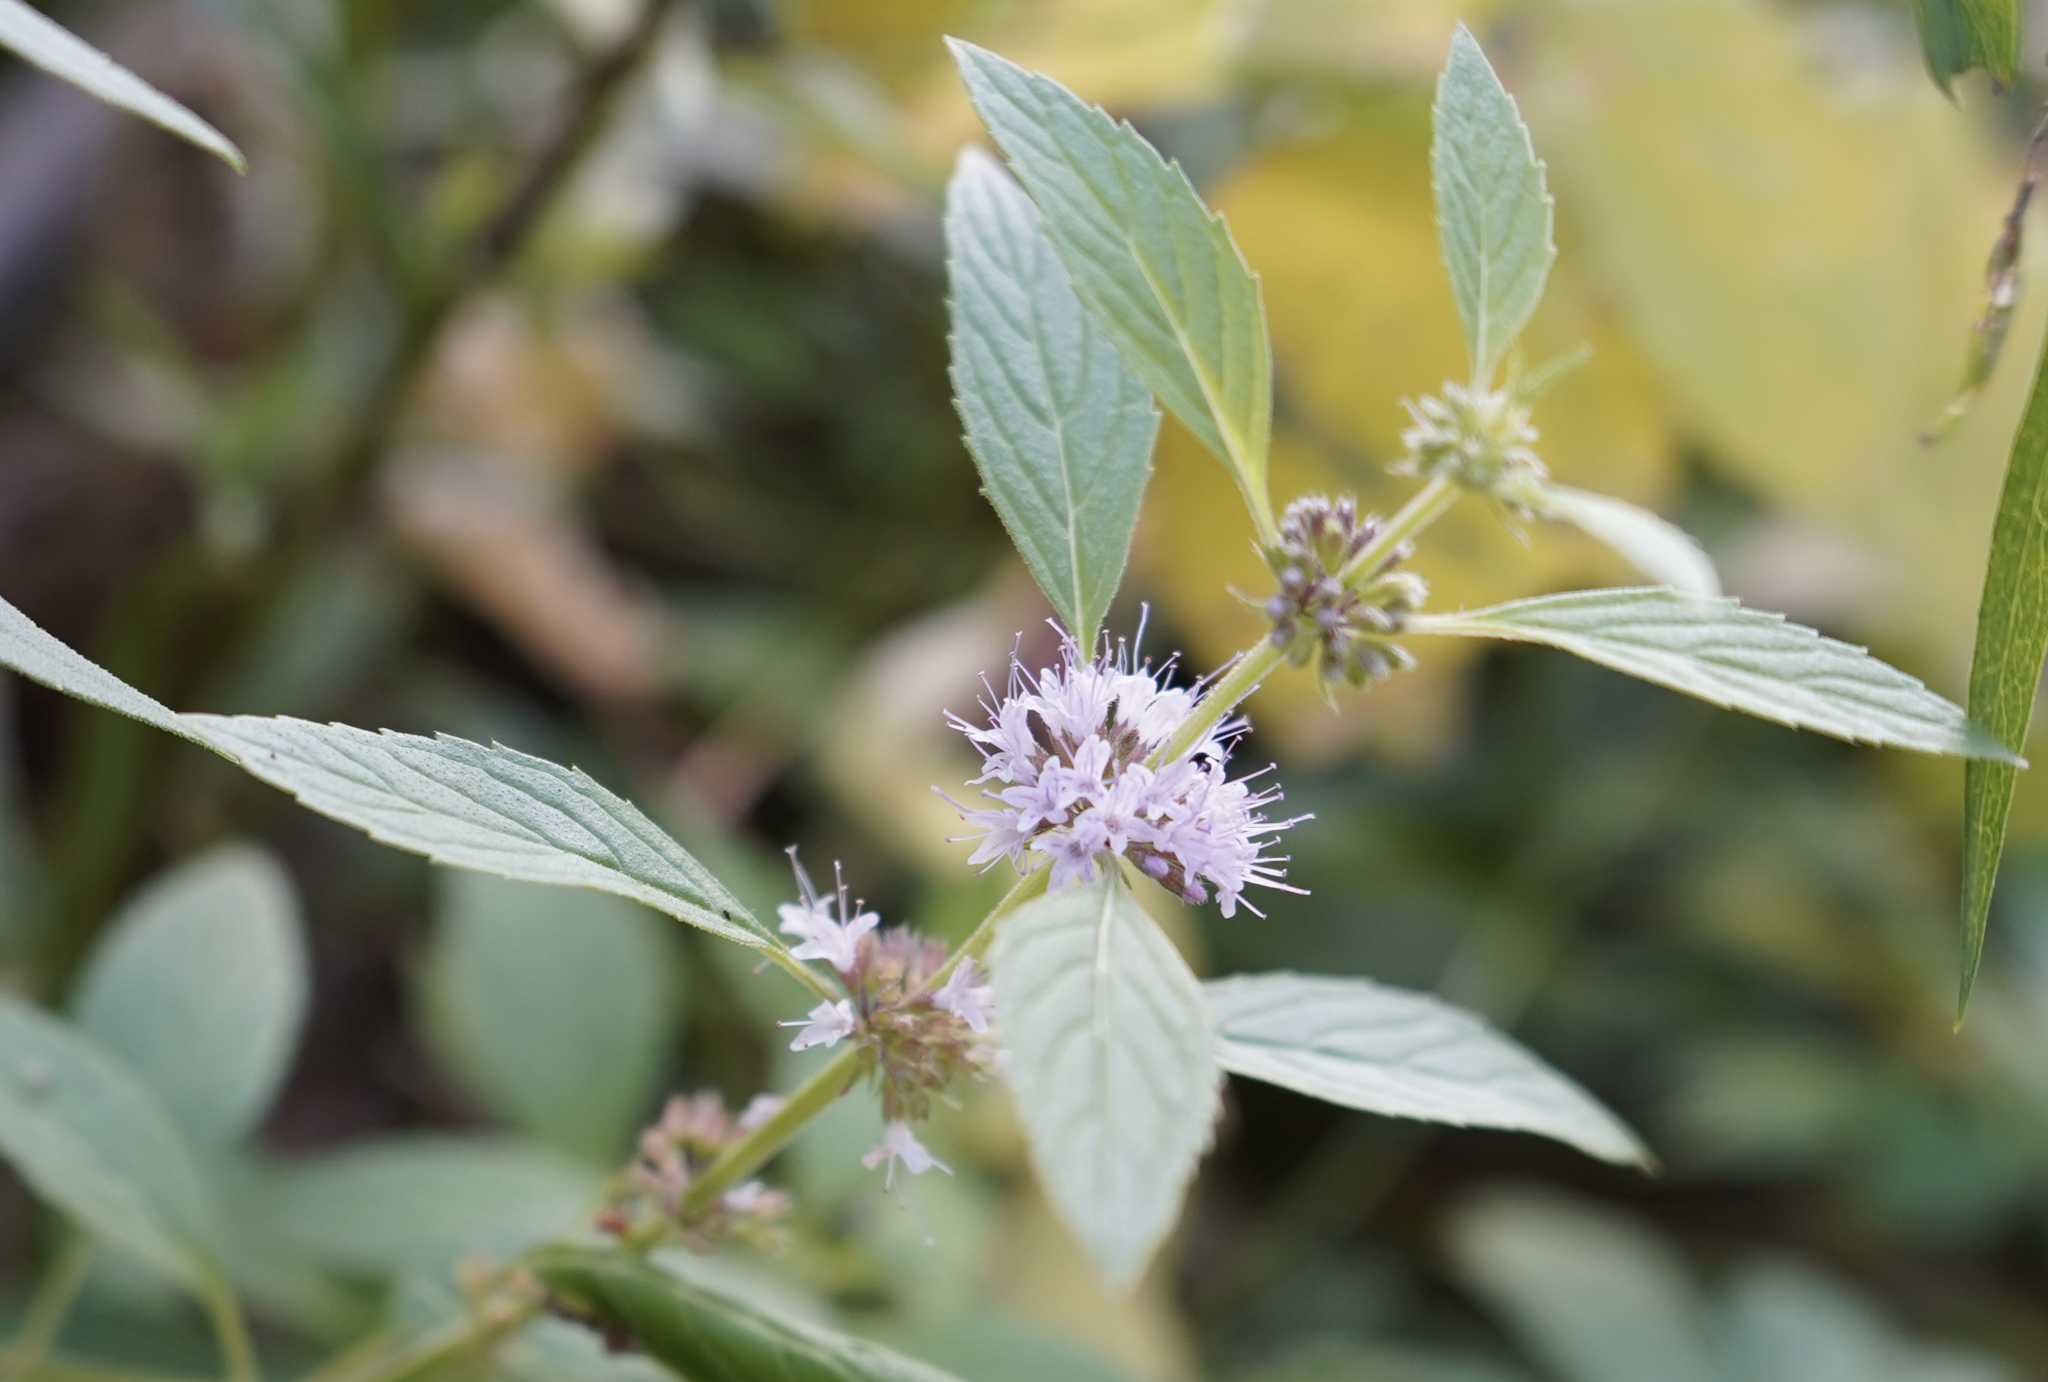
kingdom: Plantae
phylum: Tracheophyta
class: Magnoliopsida
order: Lamiales
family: Lamiaceae
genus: Mentha
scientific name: Mentha canadensis
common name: American corn mint
